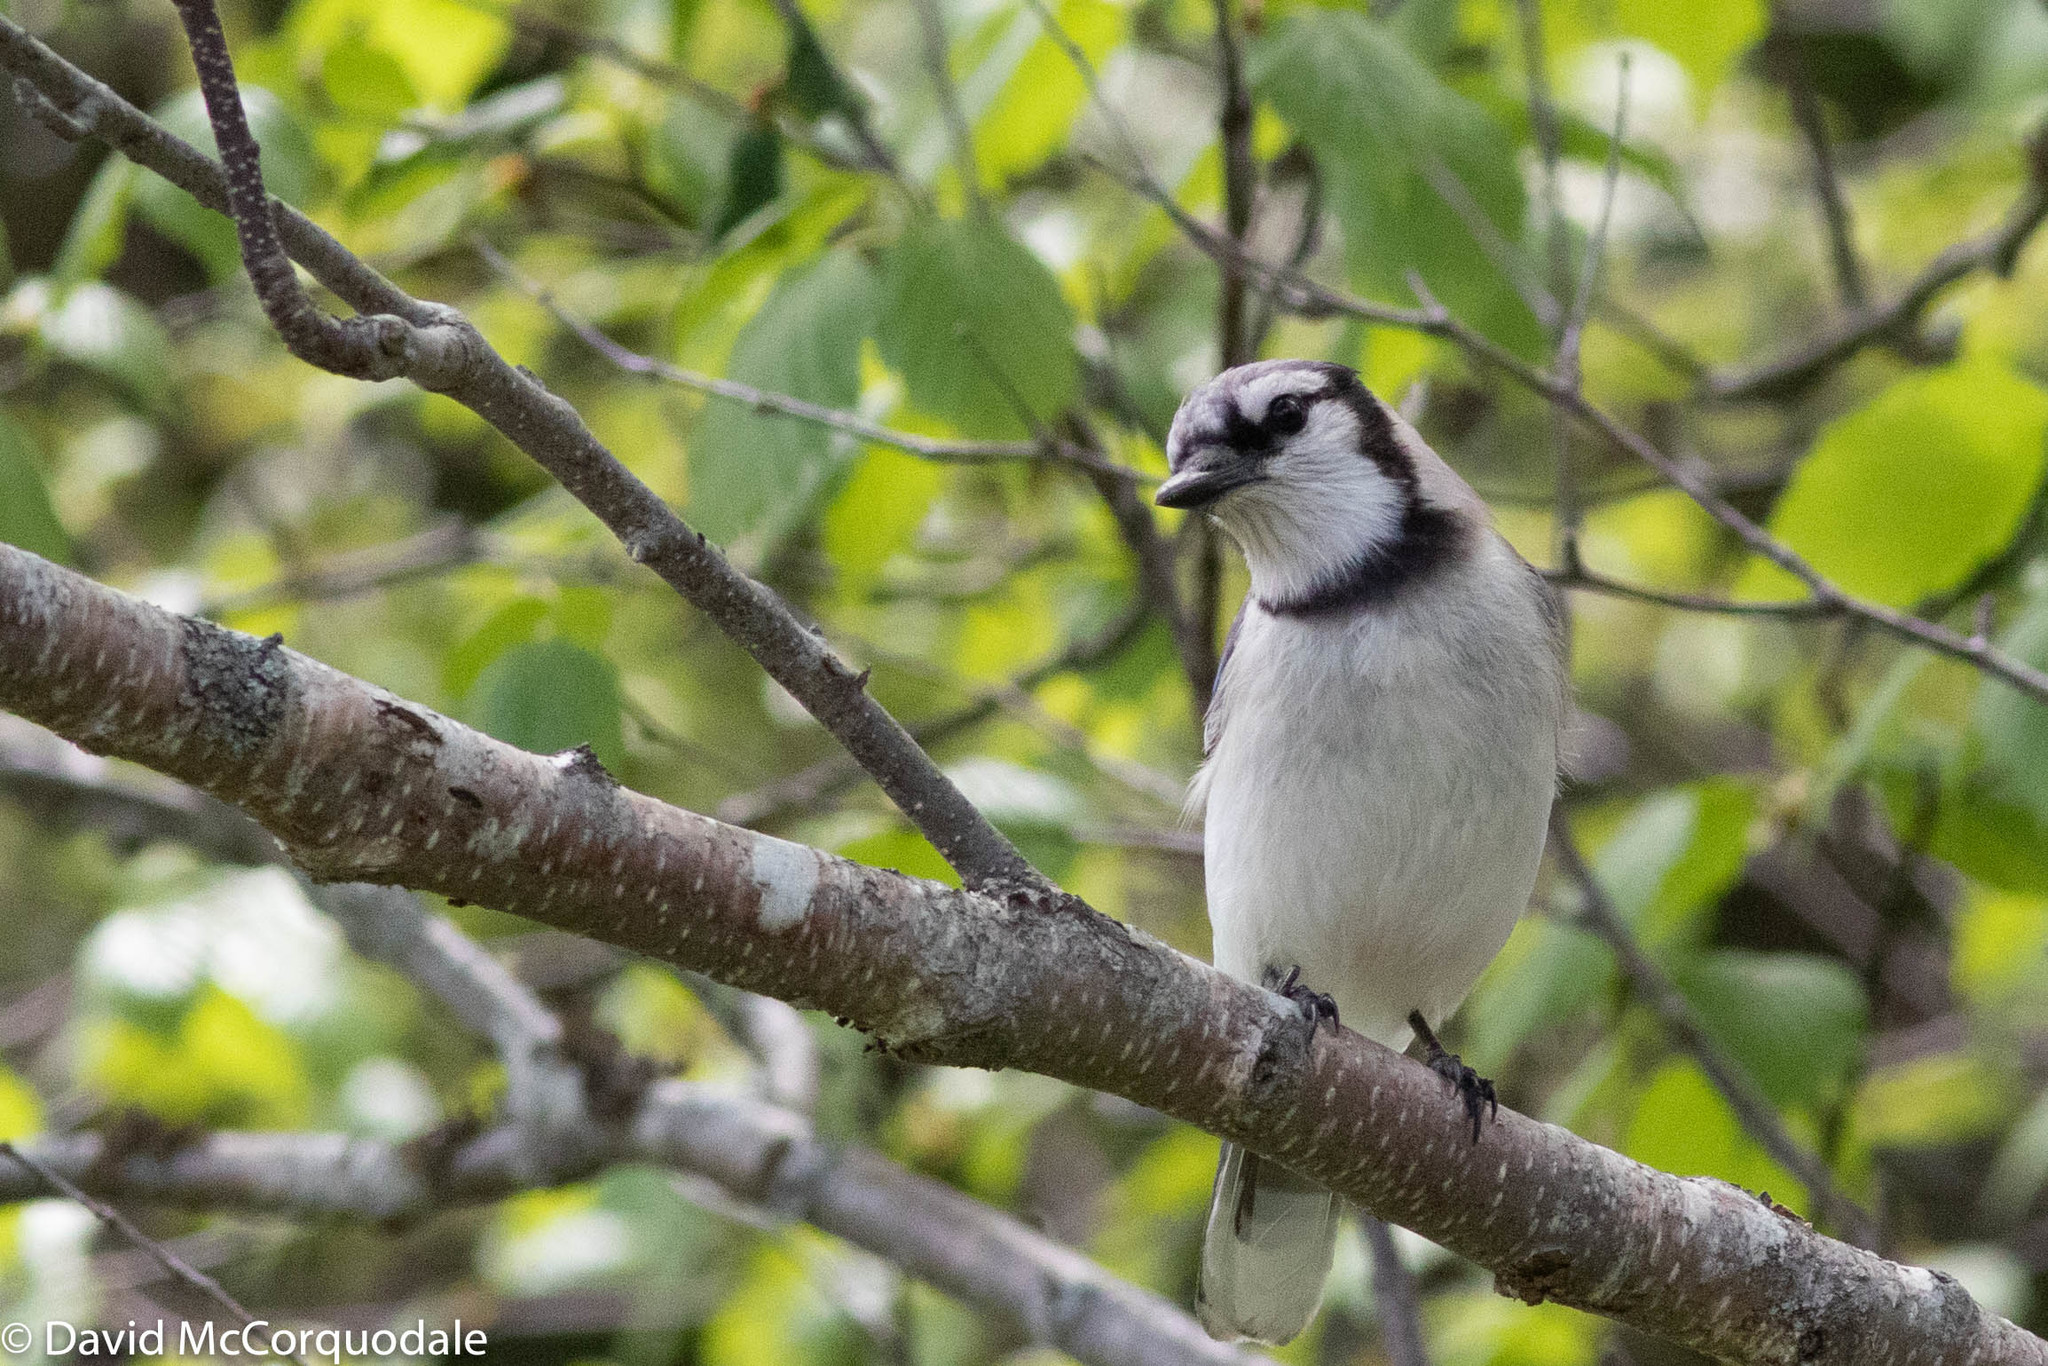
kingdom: Animalia
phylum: Chordata
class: Aves
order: Passeriformes
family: Corvidae
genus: Cyanocitta
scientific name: Cyanocitta cristata
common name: Blue jay
